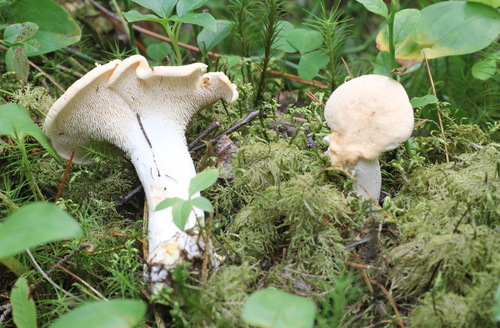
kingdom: Fungi
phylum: Basidiomycota
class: Agaricomycetes
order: Cantharellales
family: Hydnaceae
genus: Hydnum
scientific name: Hydnum repandum
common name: Wood hedgehog
